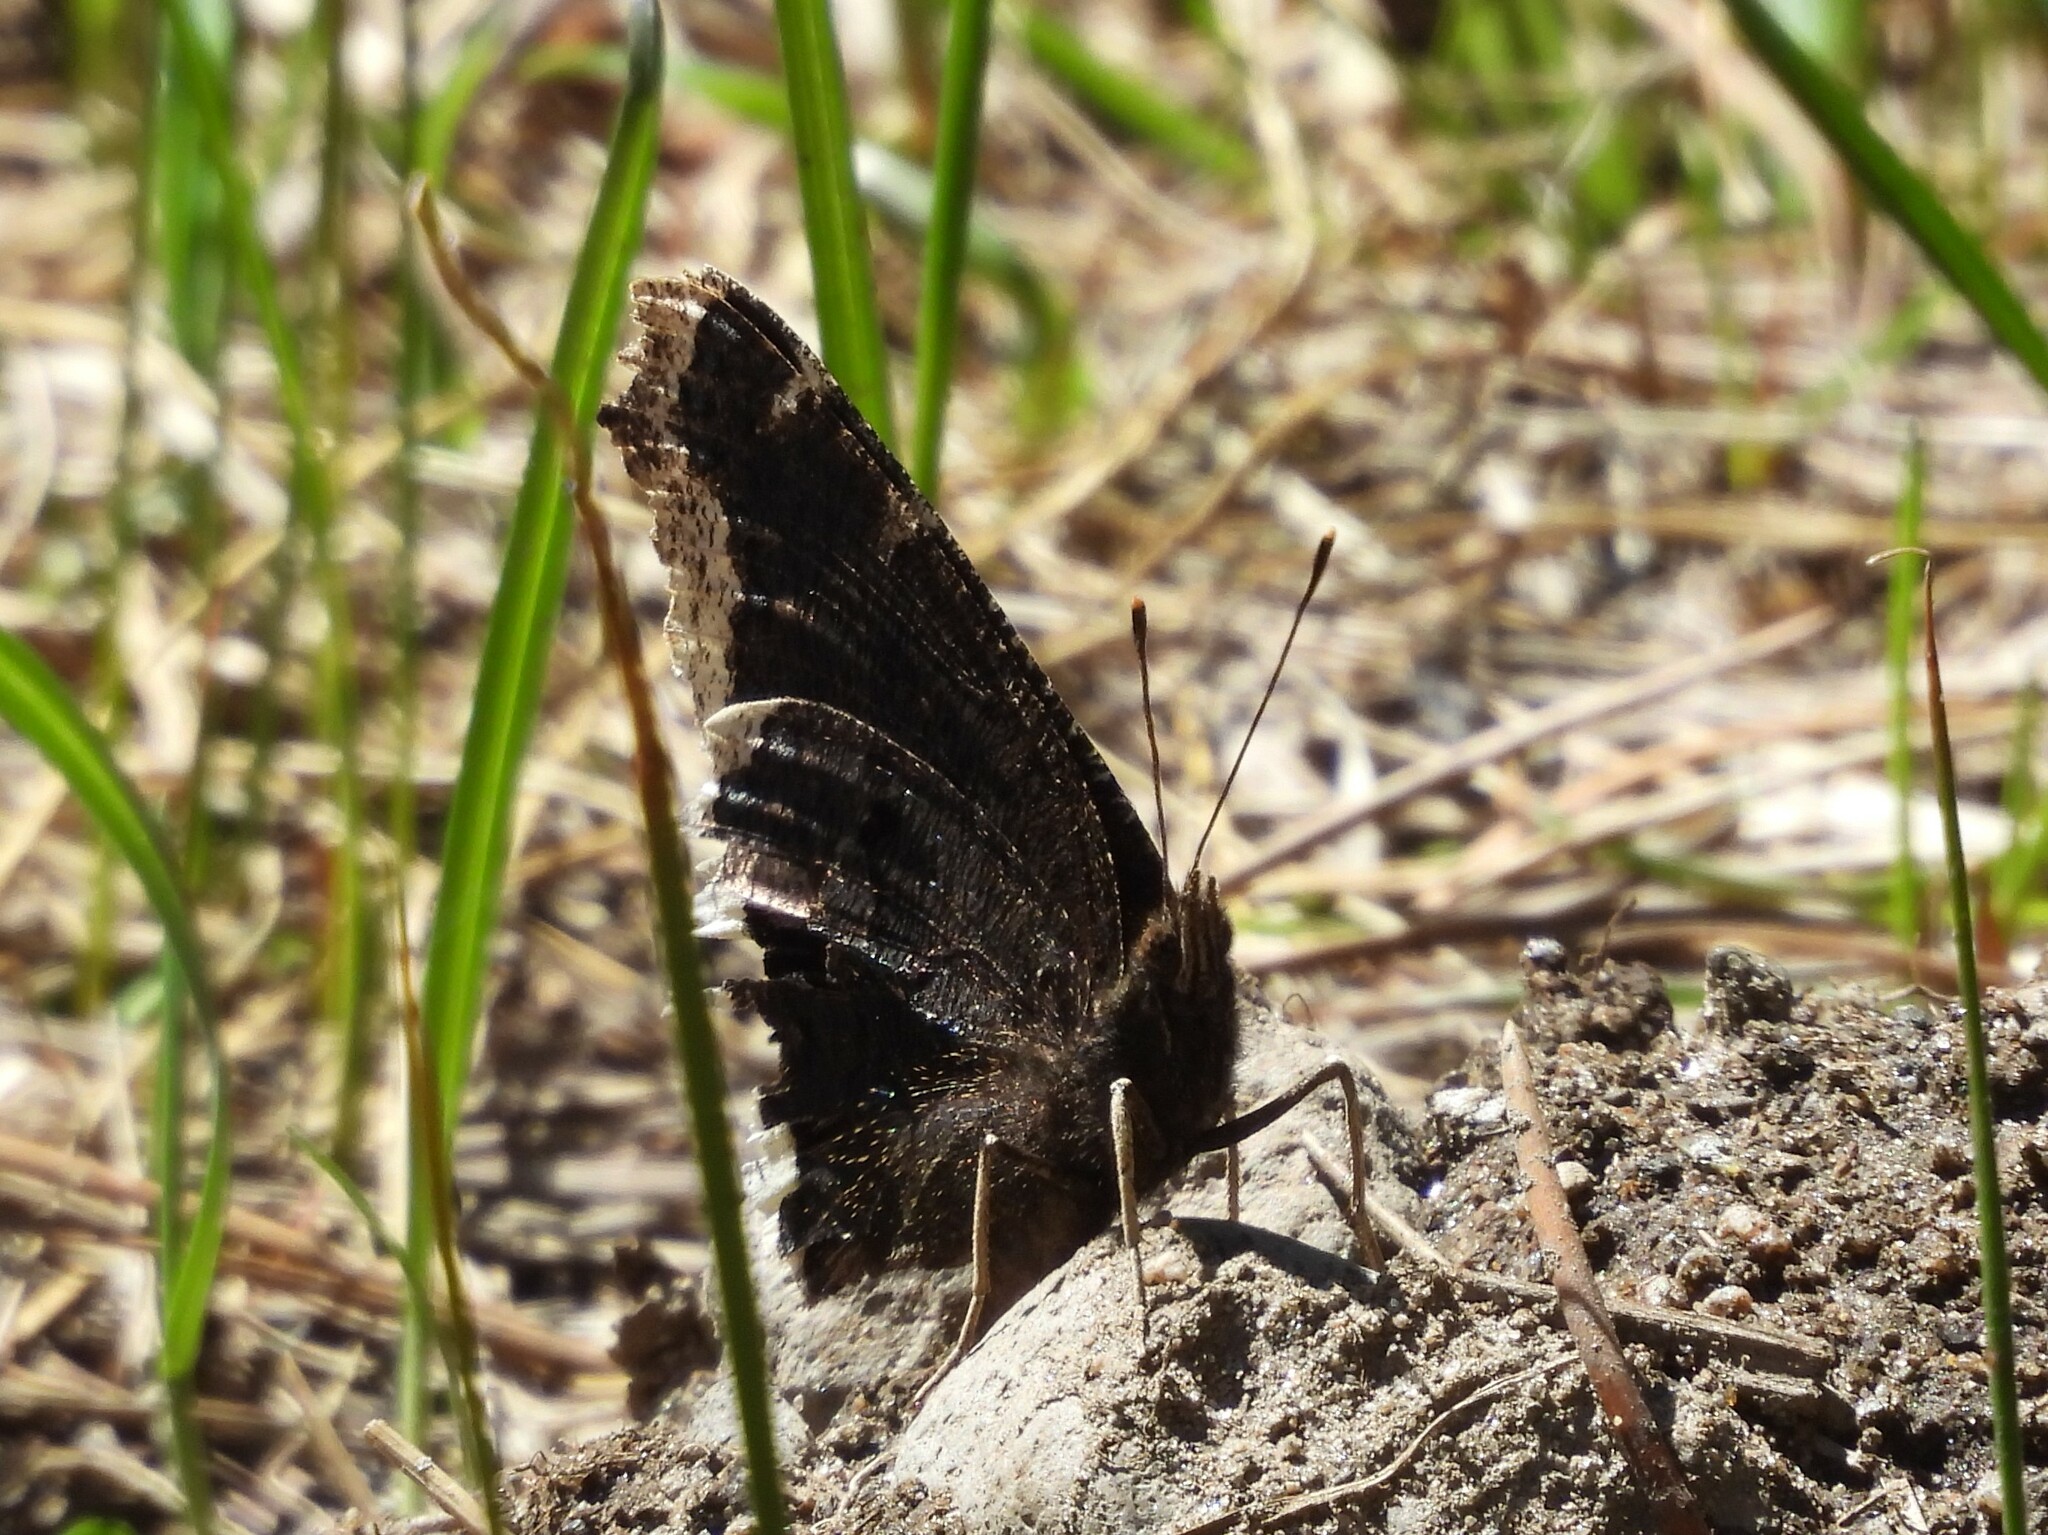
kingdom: Animalia
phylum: Arthropoda
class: Insecta
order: Lepidoptera
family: Nymphalidae
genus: Nymphalis
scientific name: Nymphalis antiopa
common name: Camberwell beauty
